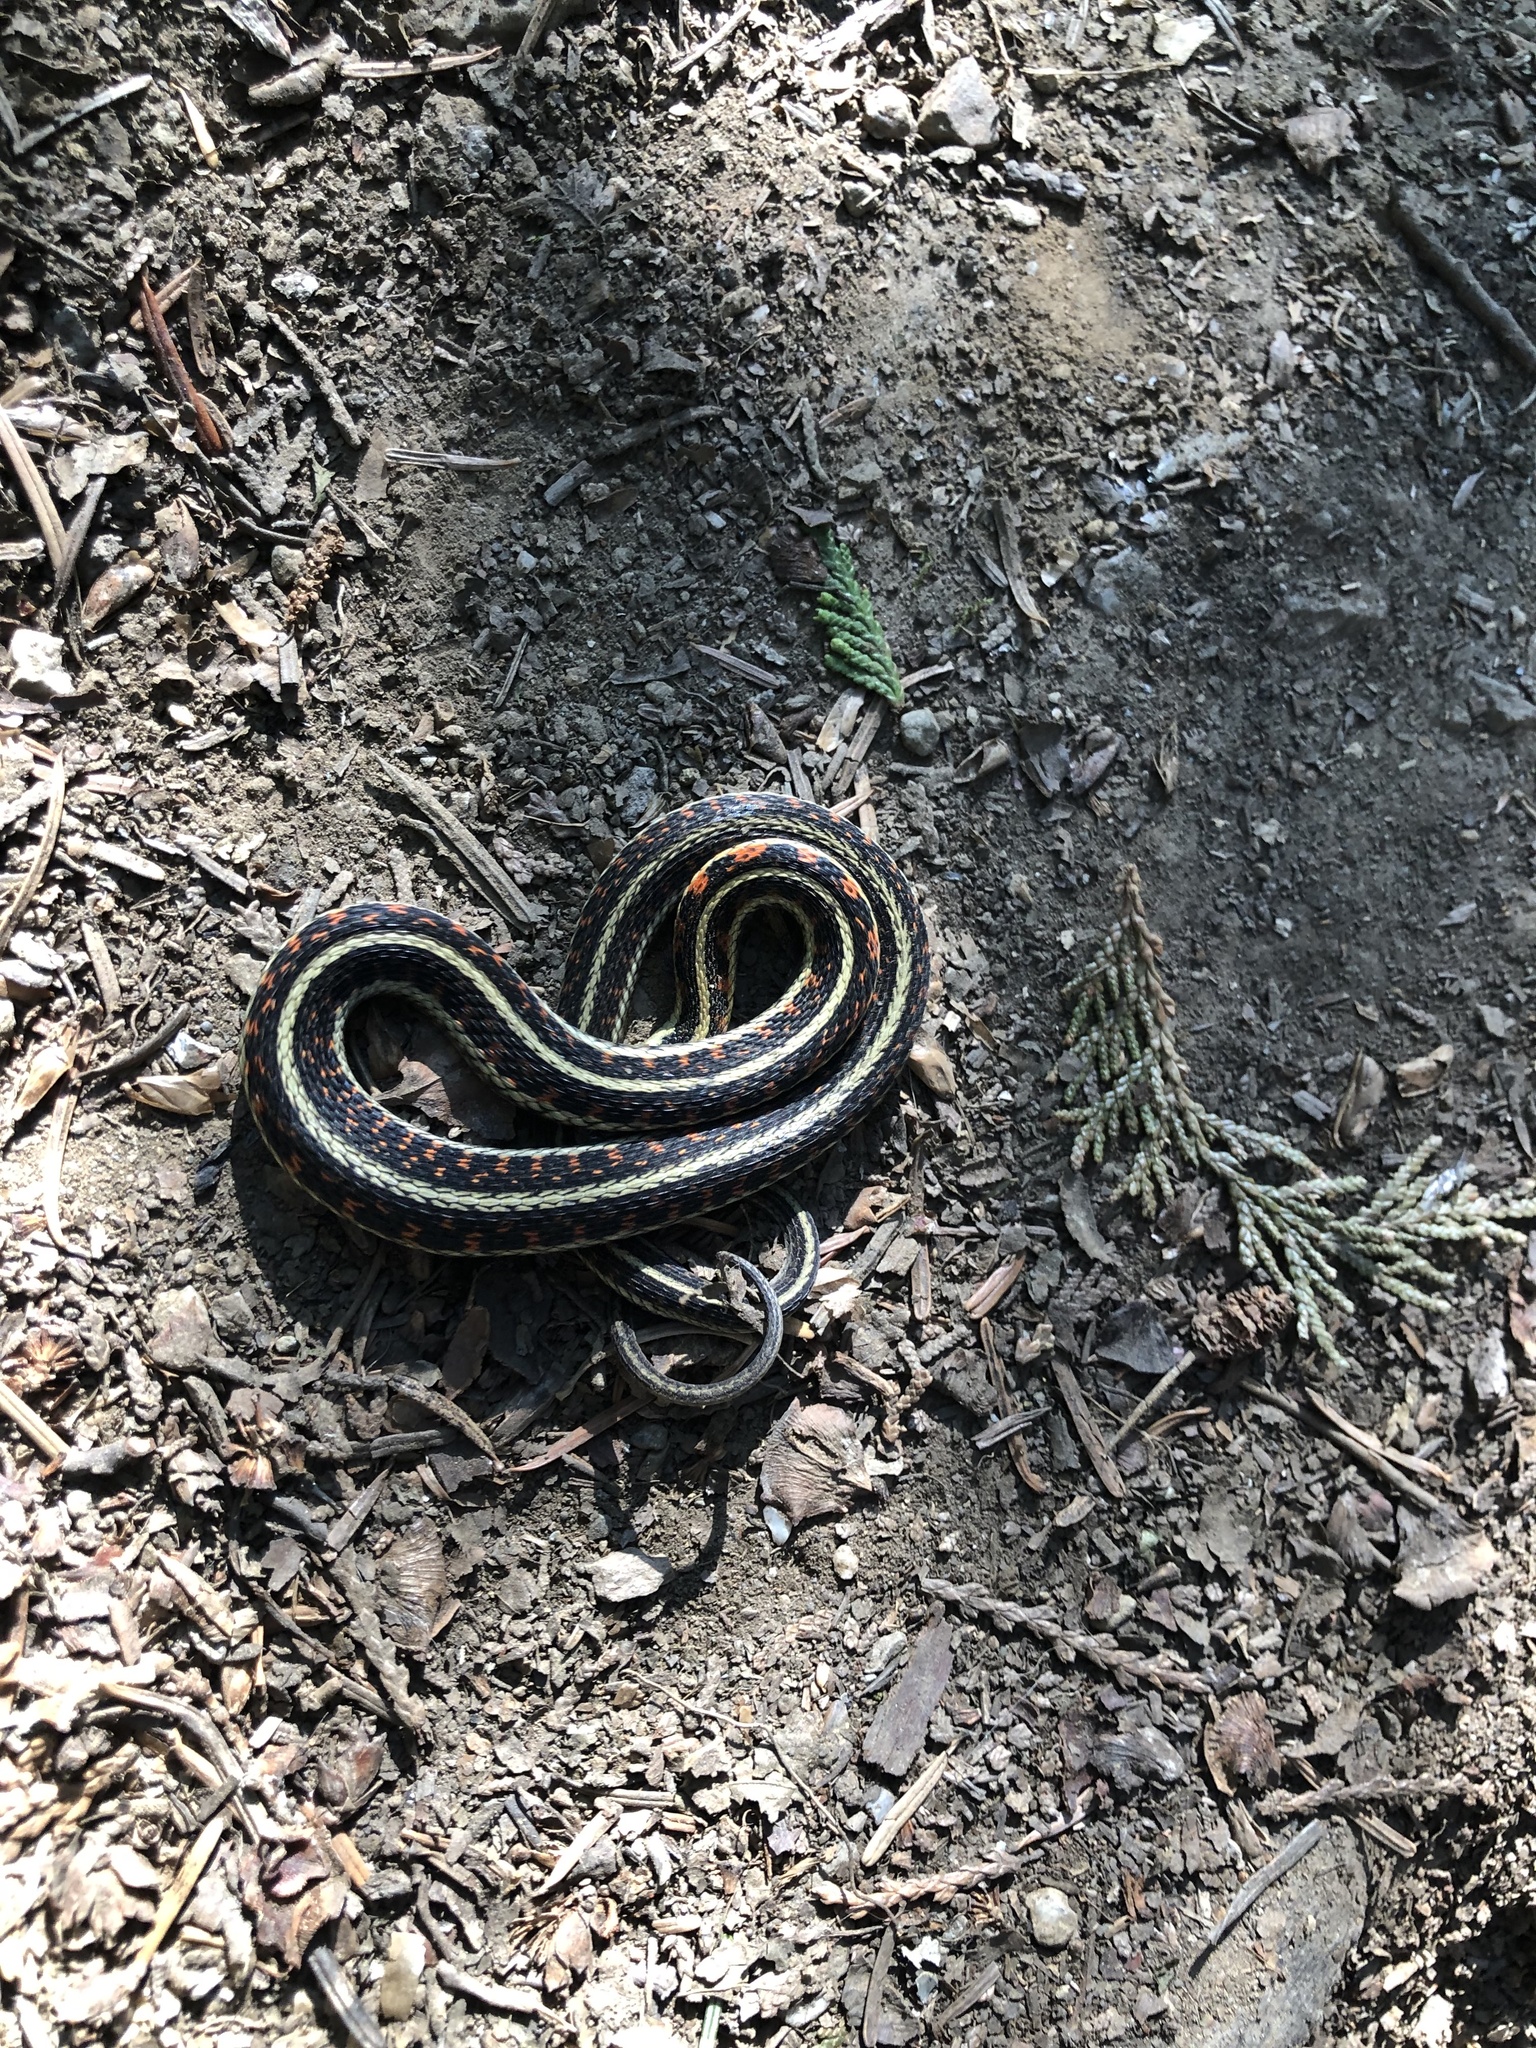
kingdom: Animalia
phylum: Chordata
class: Squamata
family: Colubridae
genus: Thamnophis
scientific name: Thamnophis sirtalis
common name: Common garter snake
